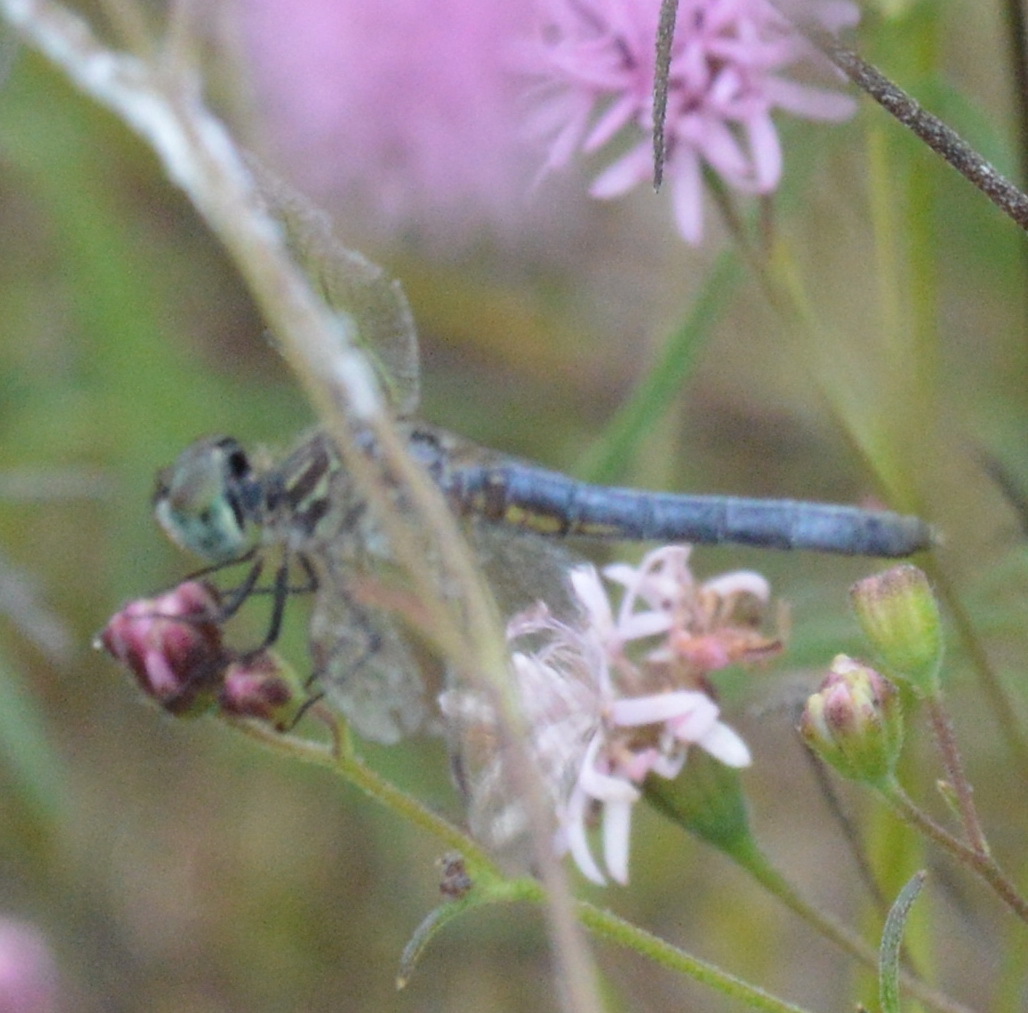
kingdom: Animalia
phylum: Arthropoda
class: Insecta
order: Odonata
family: Libellulidae
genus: Pachydiplax
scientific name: Pachydiplax longipennis
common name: Blue dasher
